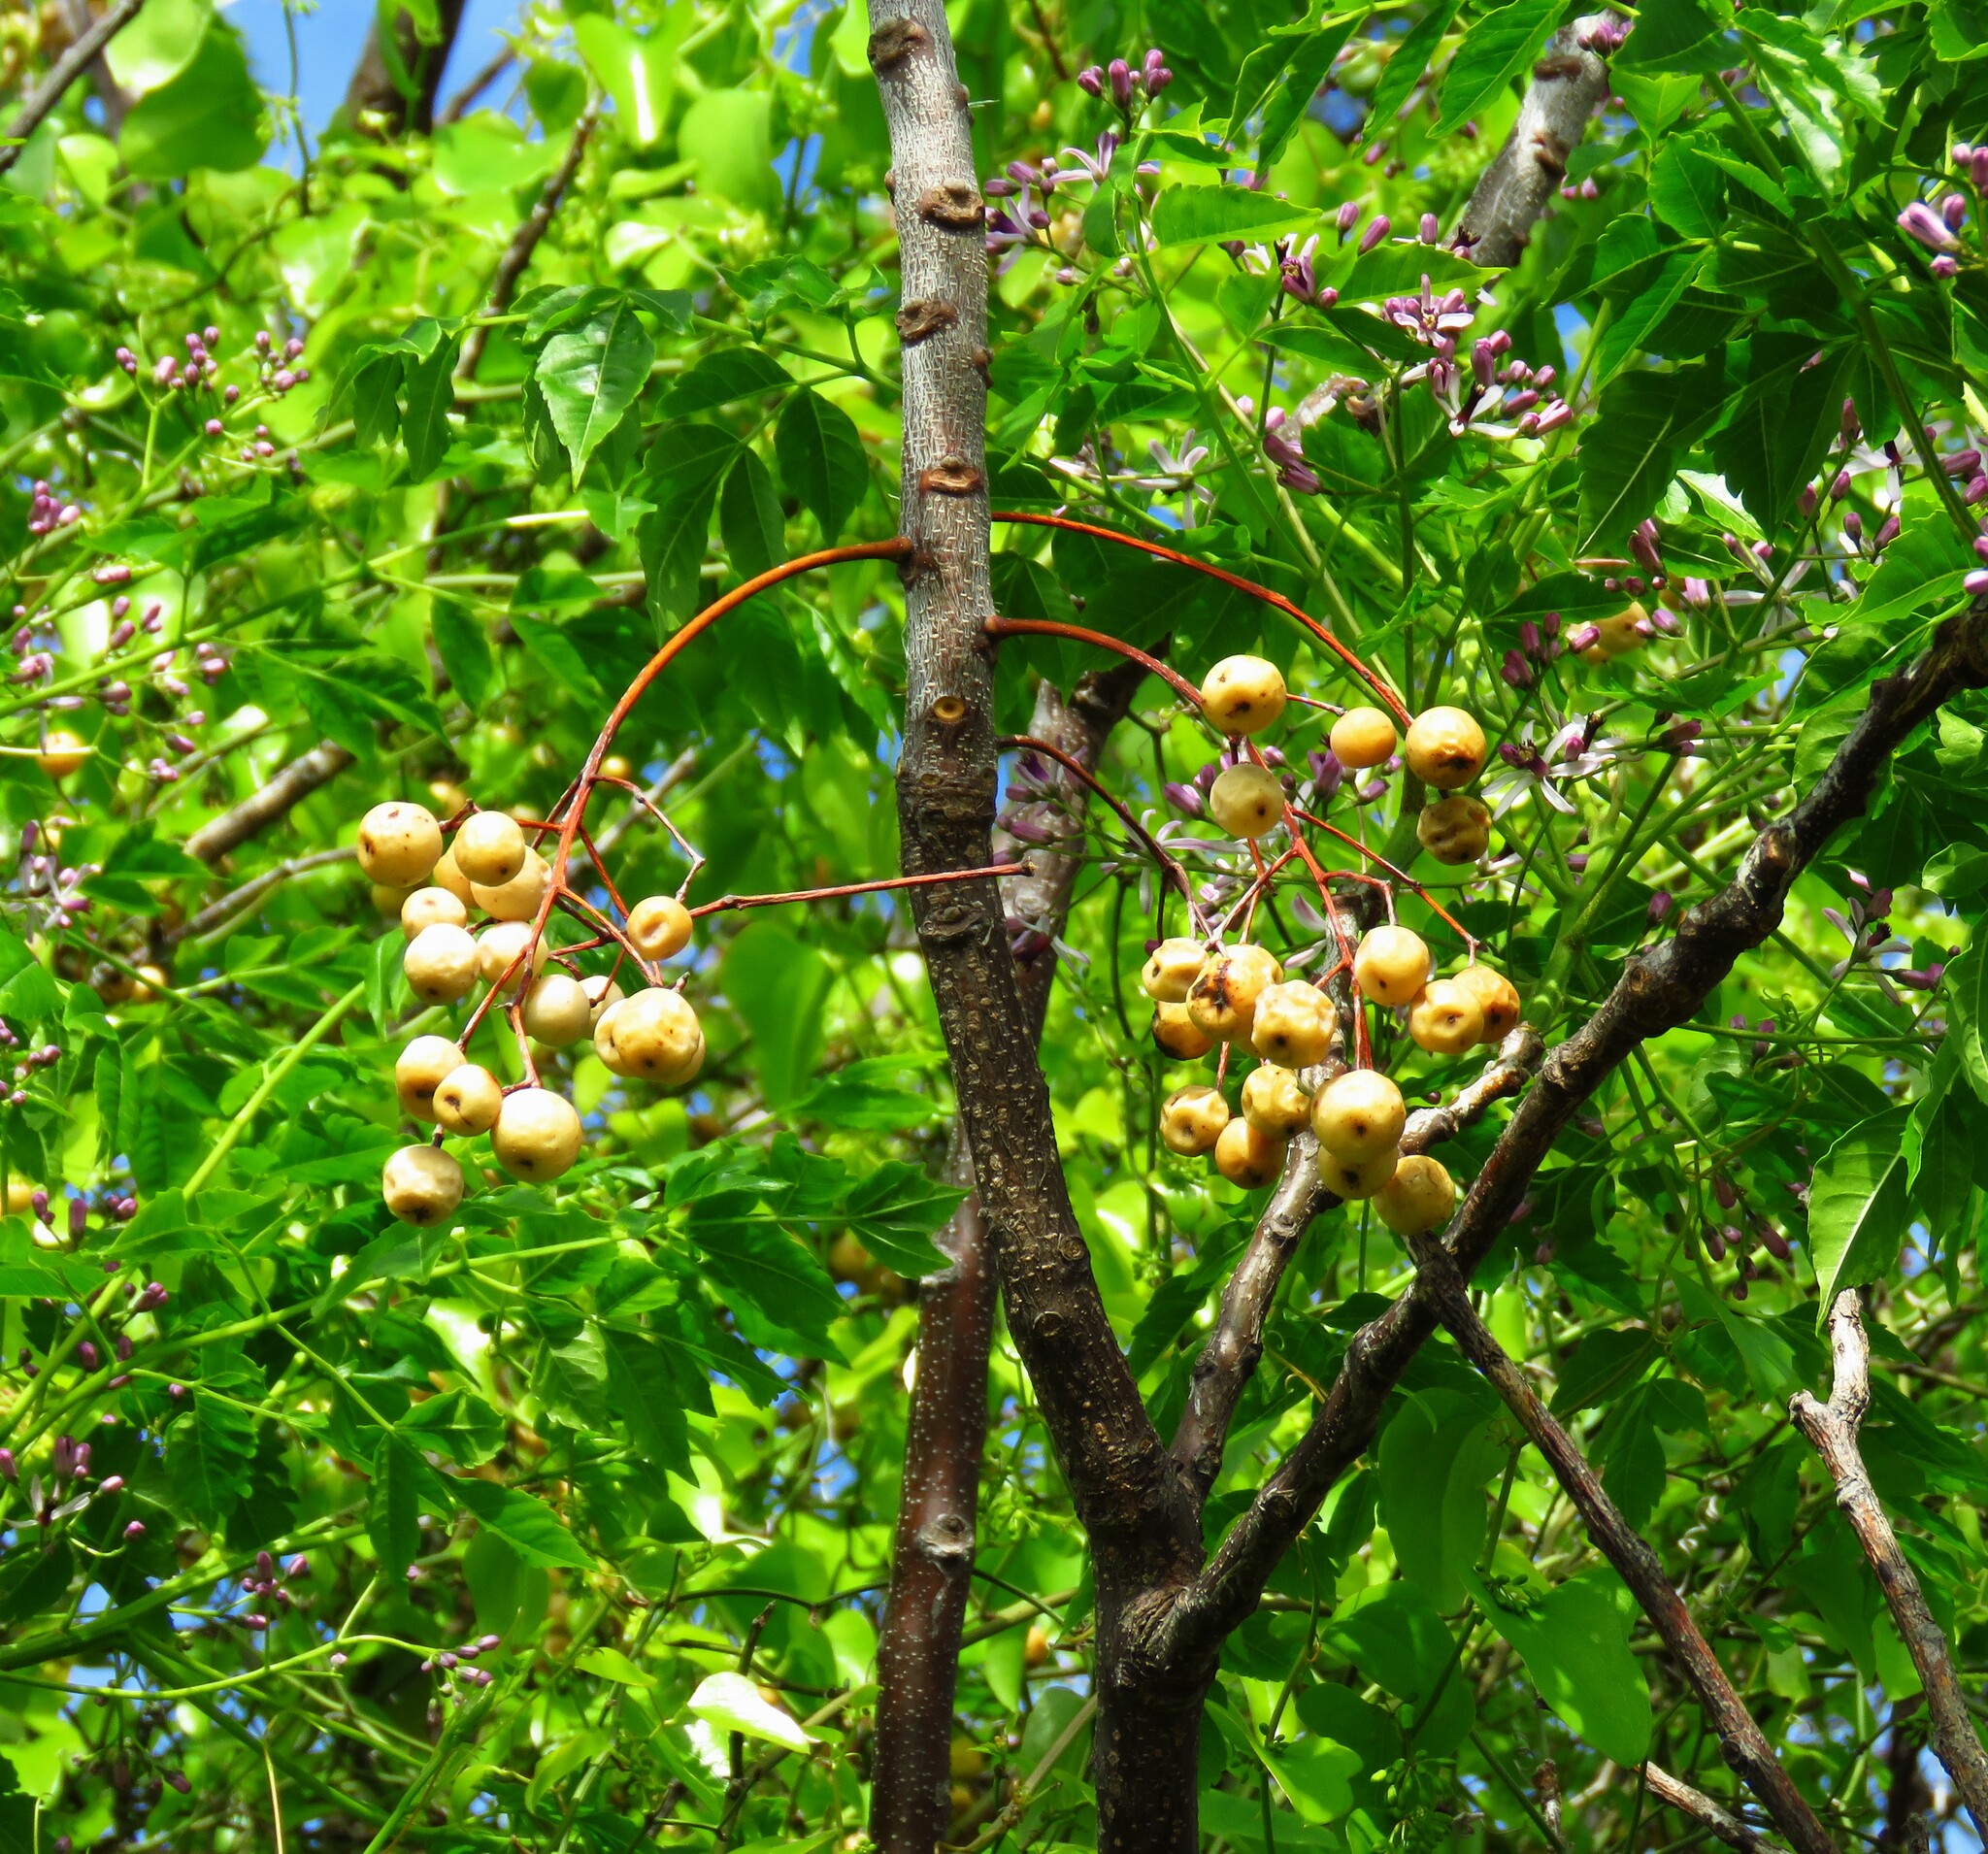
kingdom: Plantae
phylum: Tracheophyta
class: Magnoliopsida
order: Sapindales
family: Meliaceae
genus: Melia
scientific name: Melia azedarach
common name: Chinaberrytree
